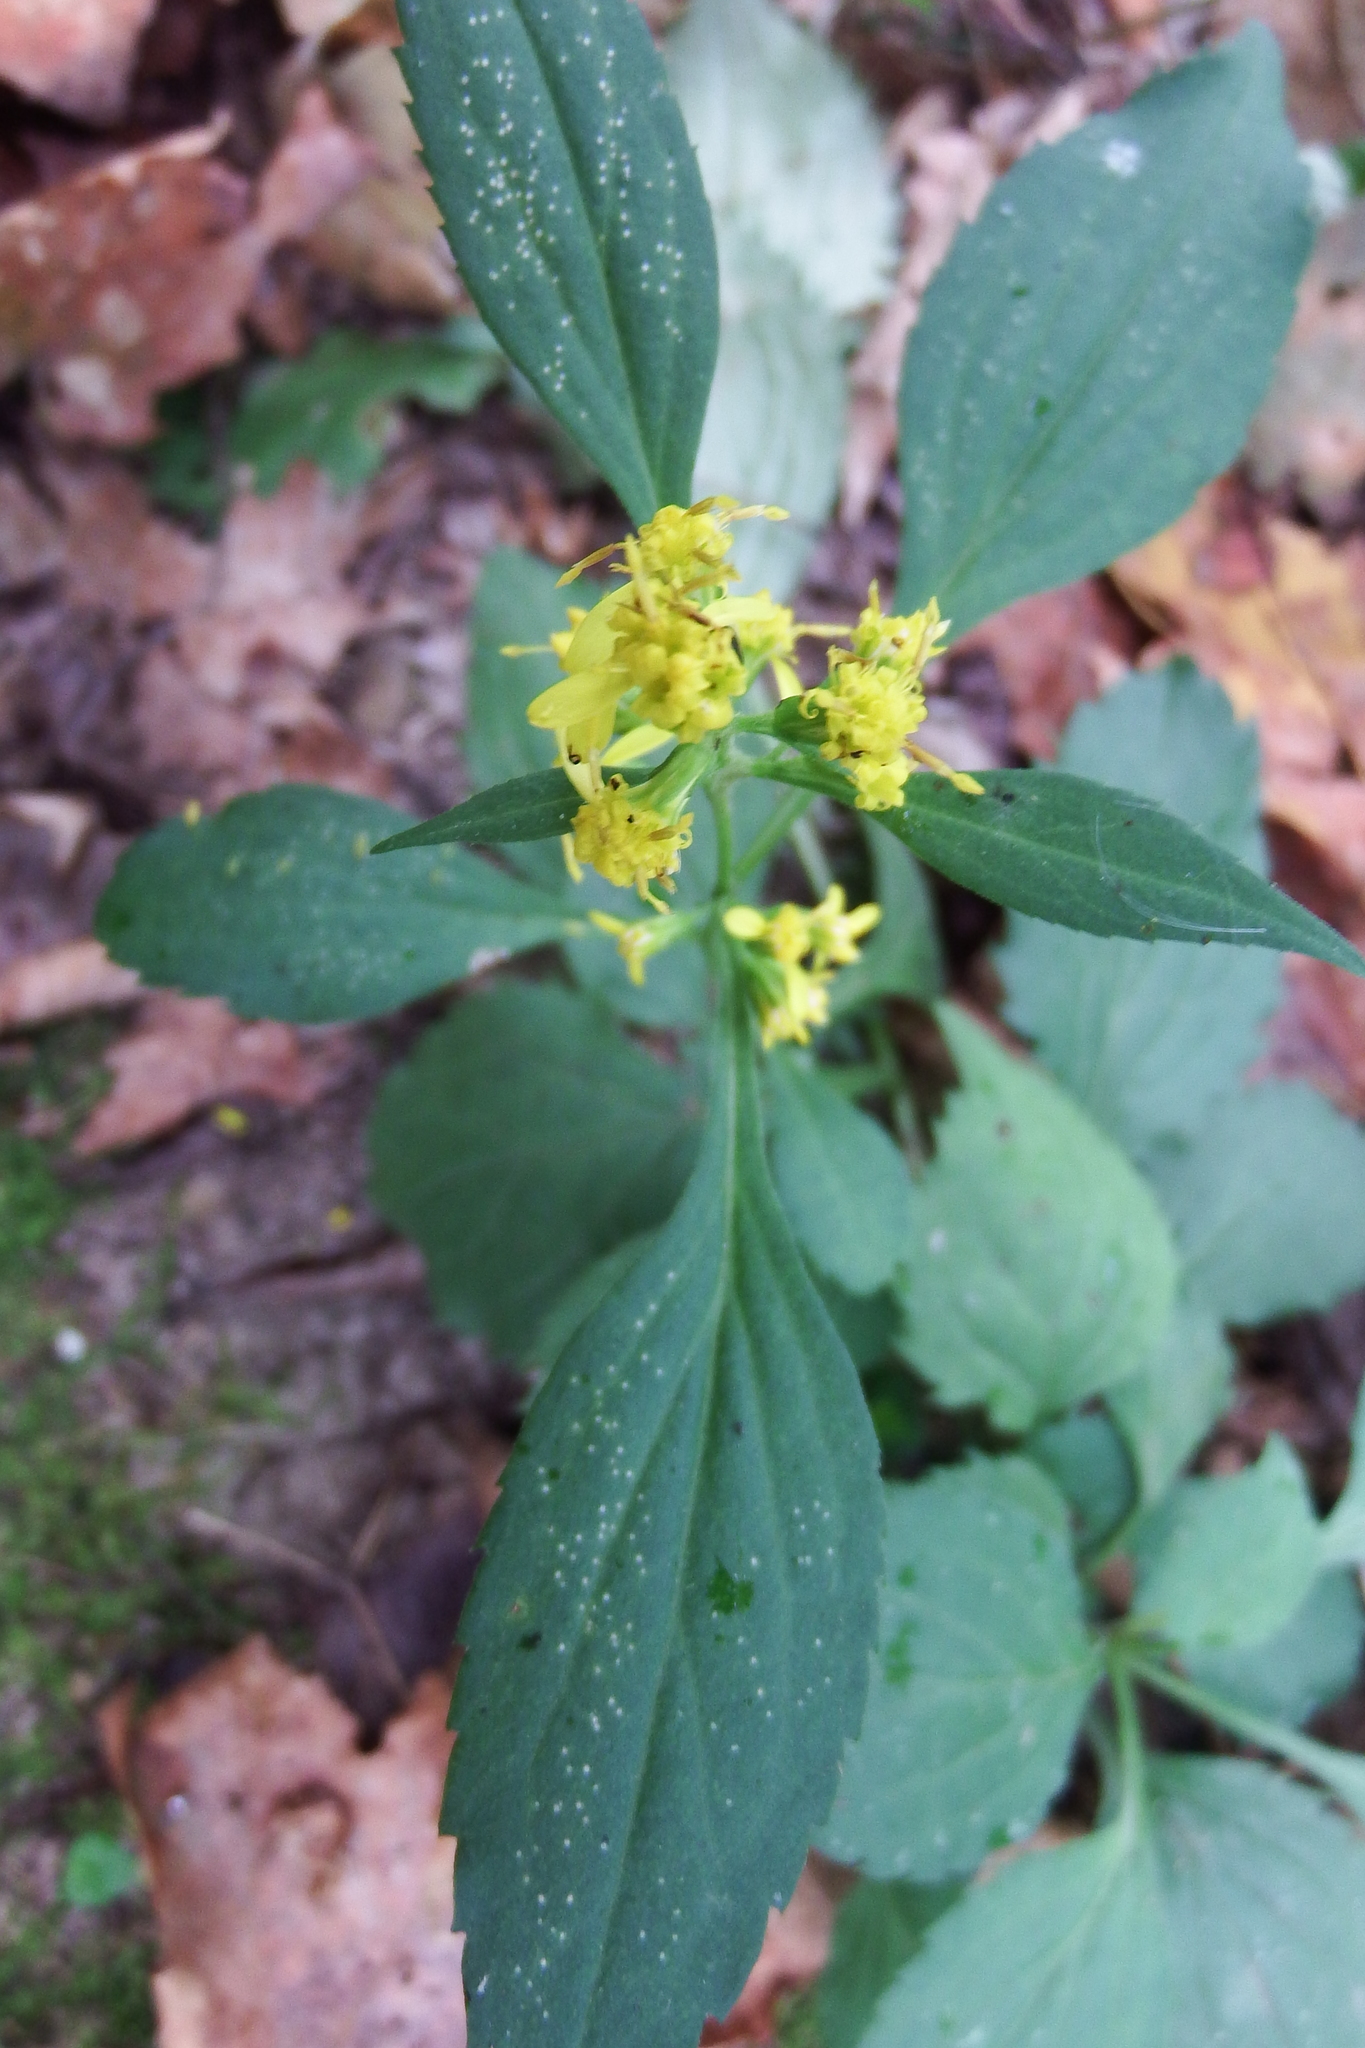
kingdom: Plantae
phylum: Tracheophyta
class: Magnoliopsida
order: Asterales
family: Asteraceae
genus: Solidago
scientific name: Solidago flexicaulis
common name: Zig-zag goldenrod
